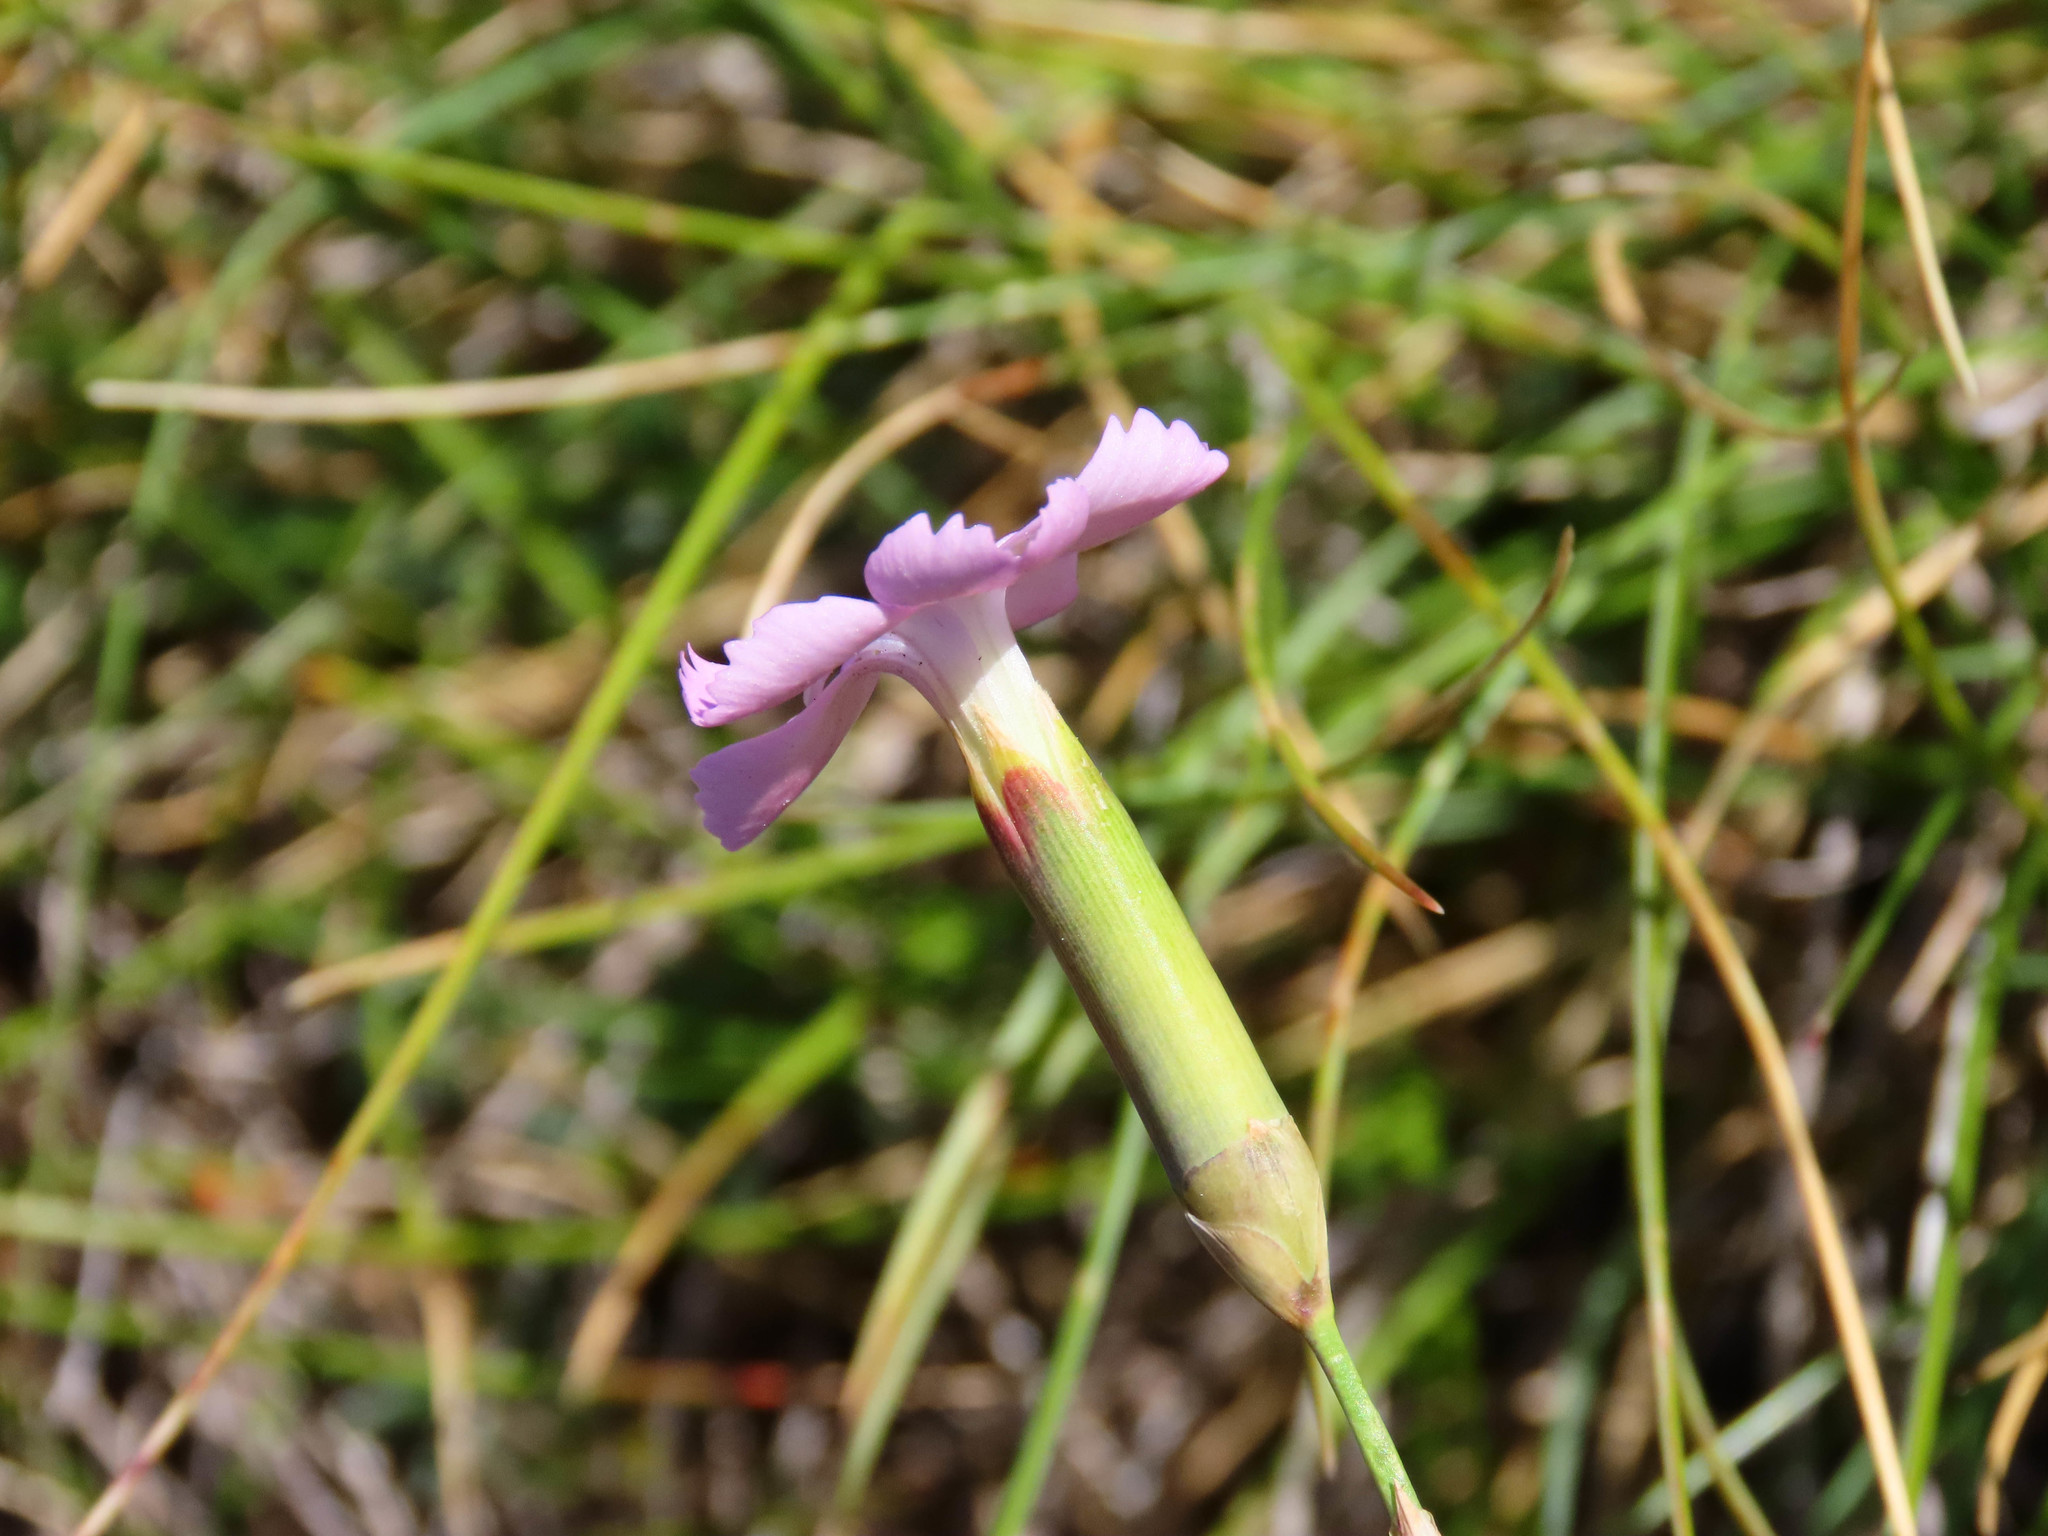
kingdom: Plantae
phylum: Tracheophyta
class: Magnoliopsida
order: Caryophyllales
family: Caryophyllaceae
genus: Dianthus
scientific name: Dianthus brachycalyx
